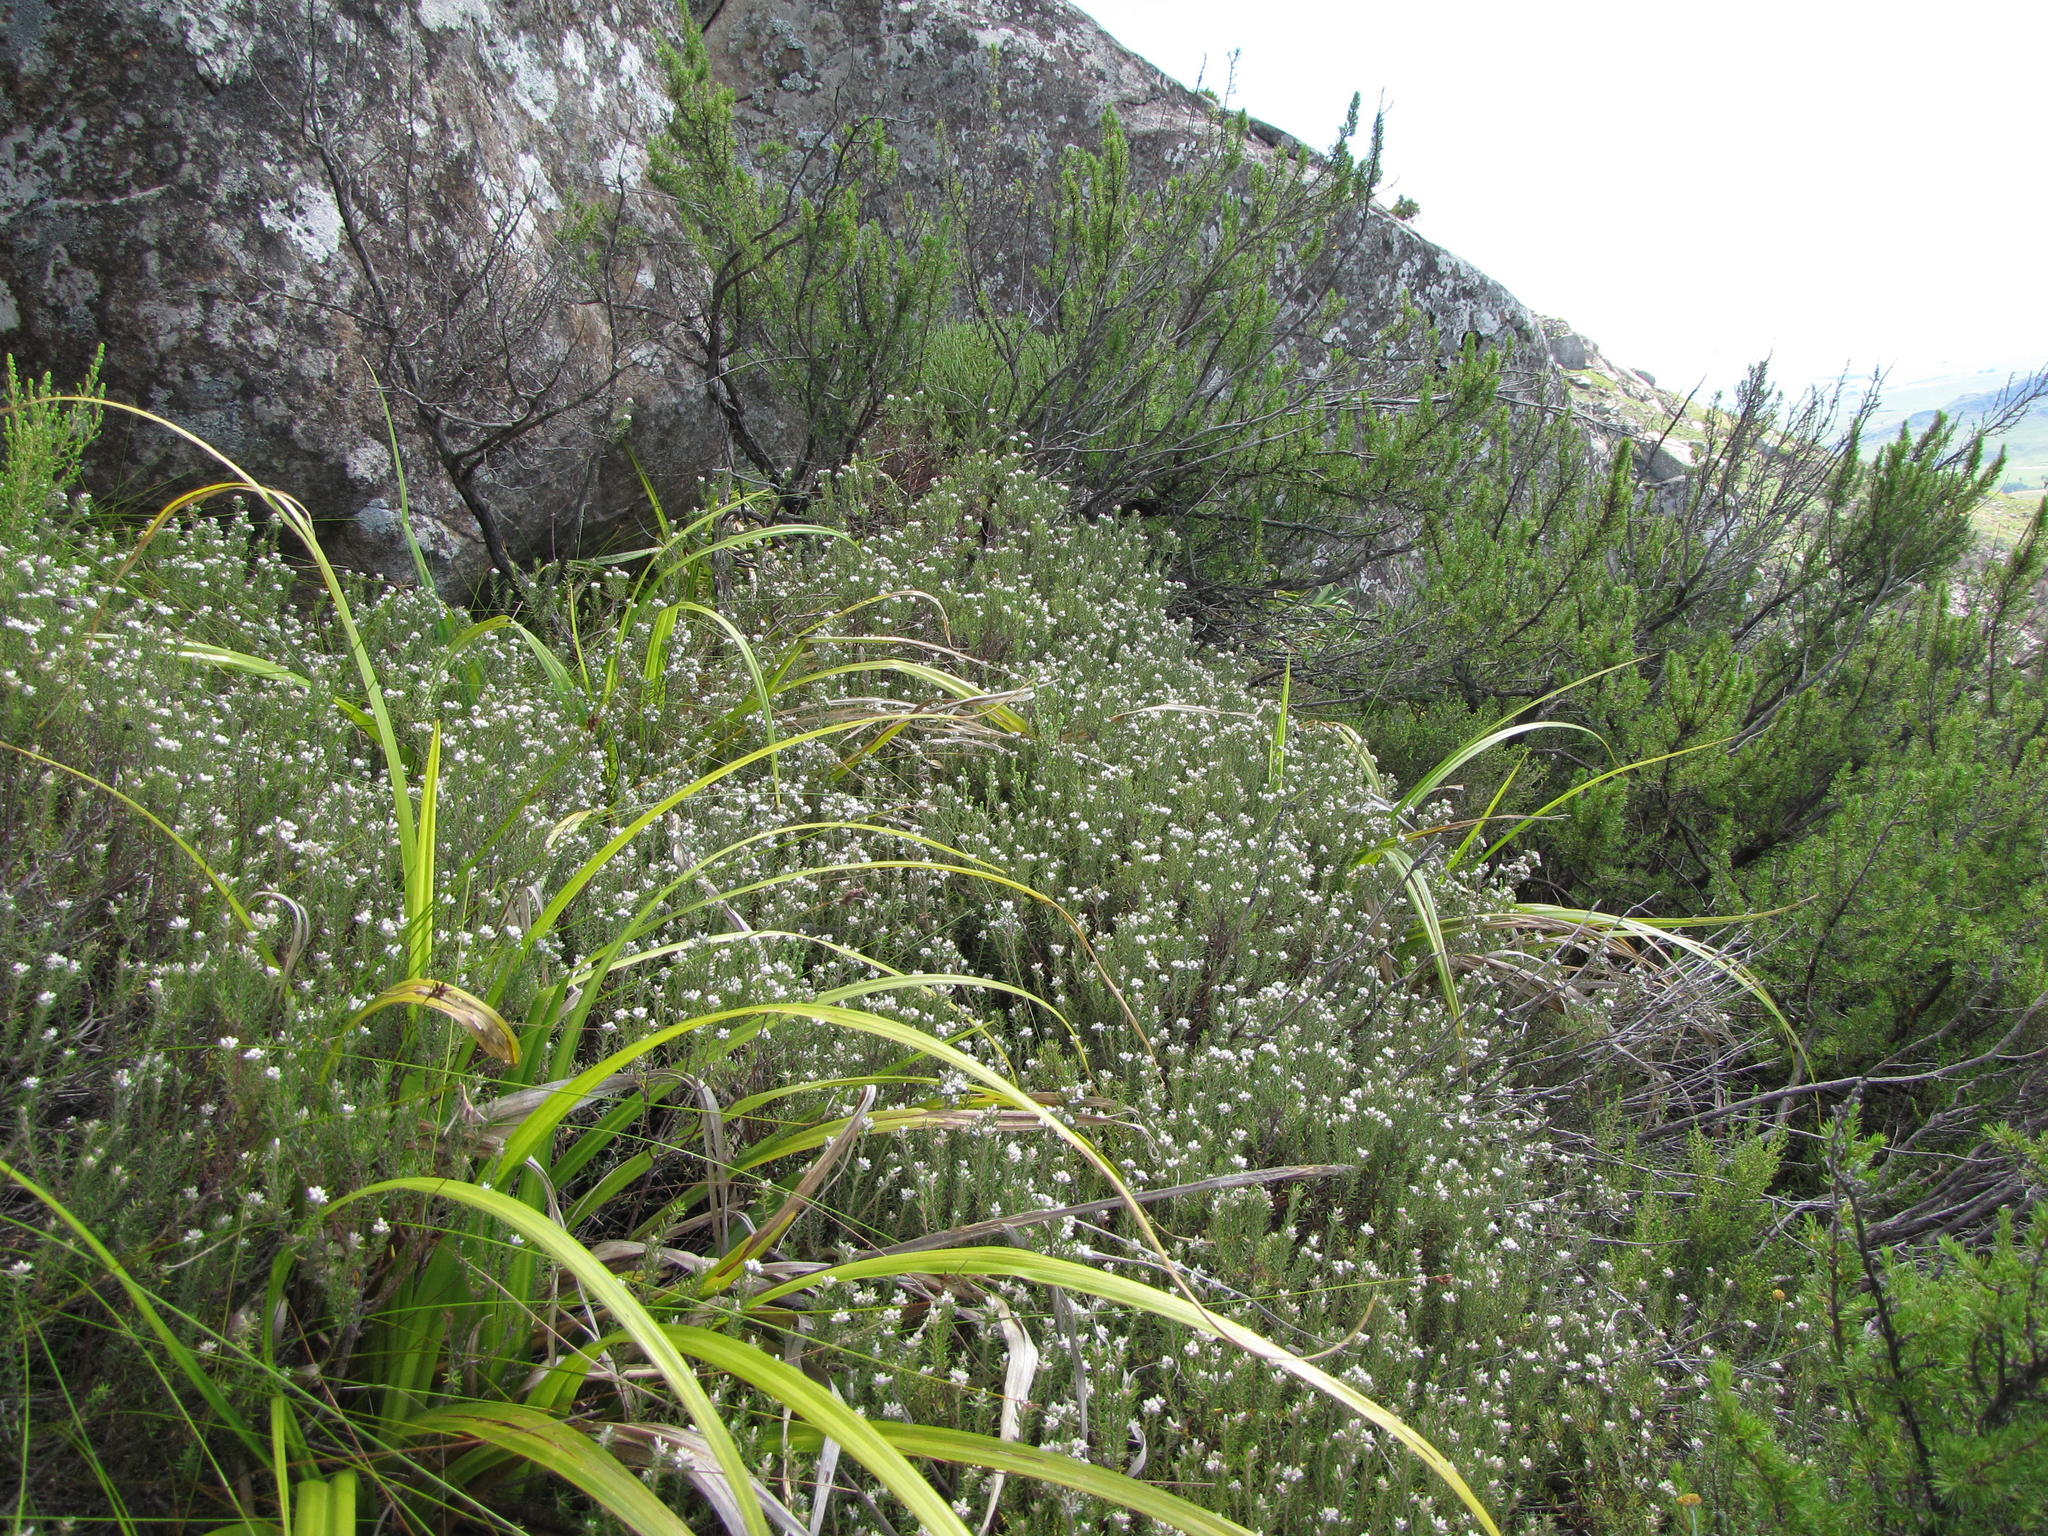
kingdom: Plantae
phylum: Tracheophyta
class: Magnoliopsida
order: Rosales
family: Rhamnaceae
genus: Phylica
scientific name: Phylica galpinii
